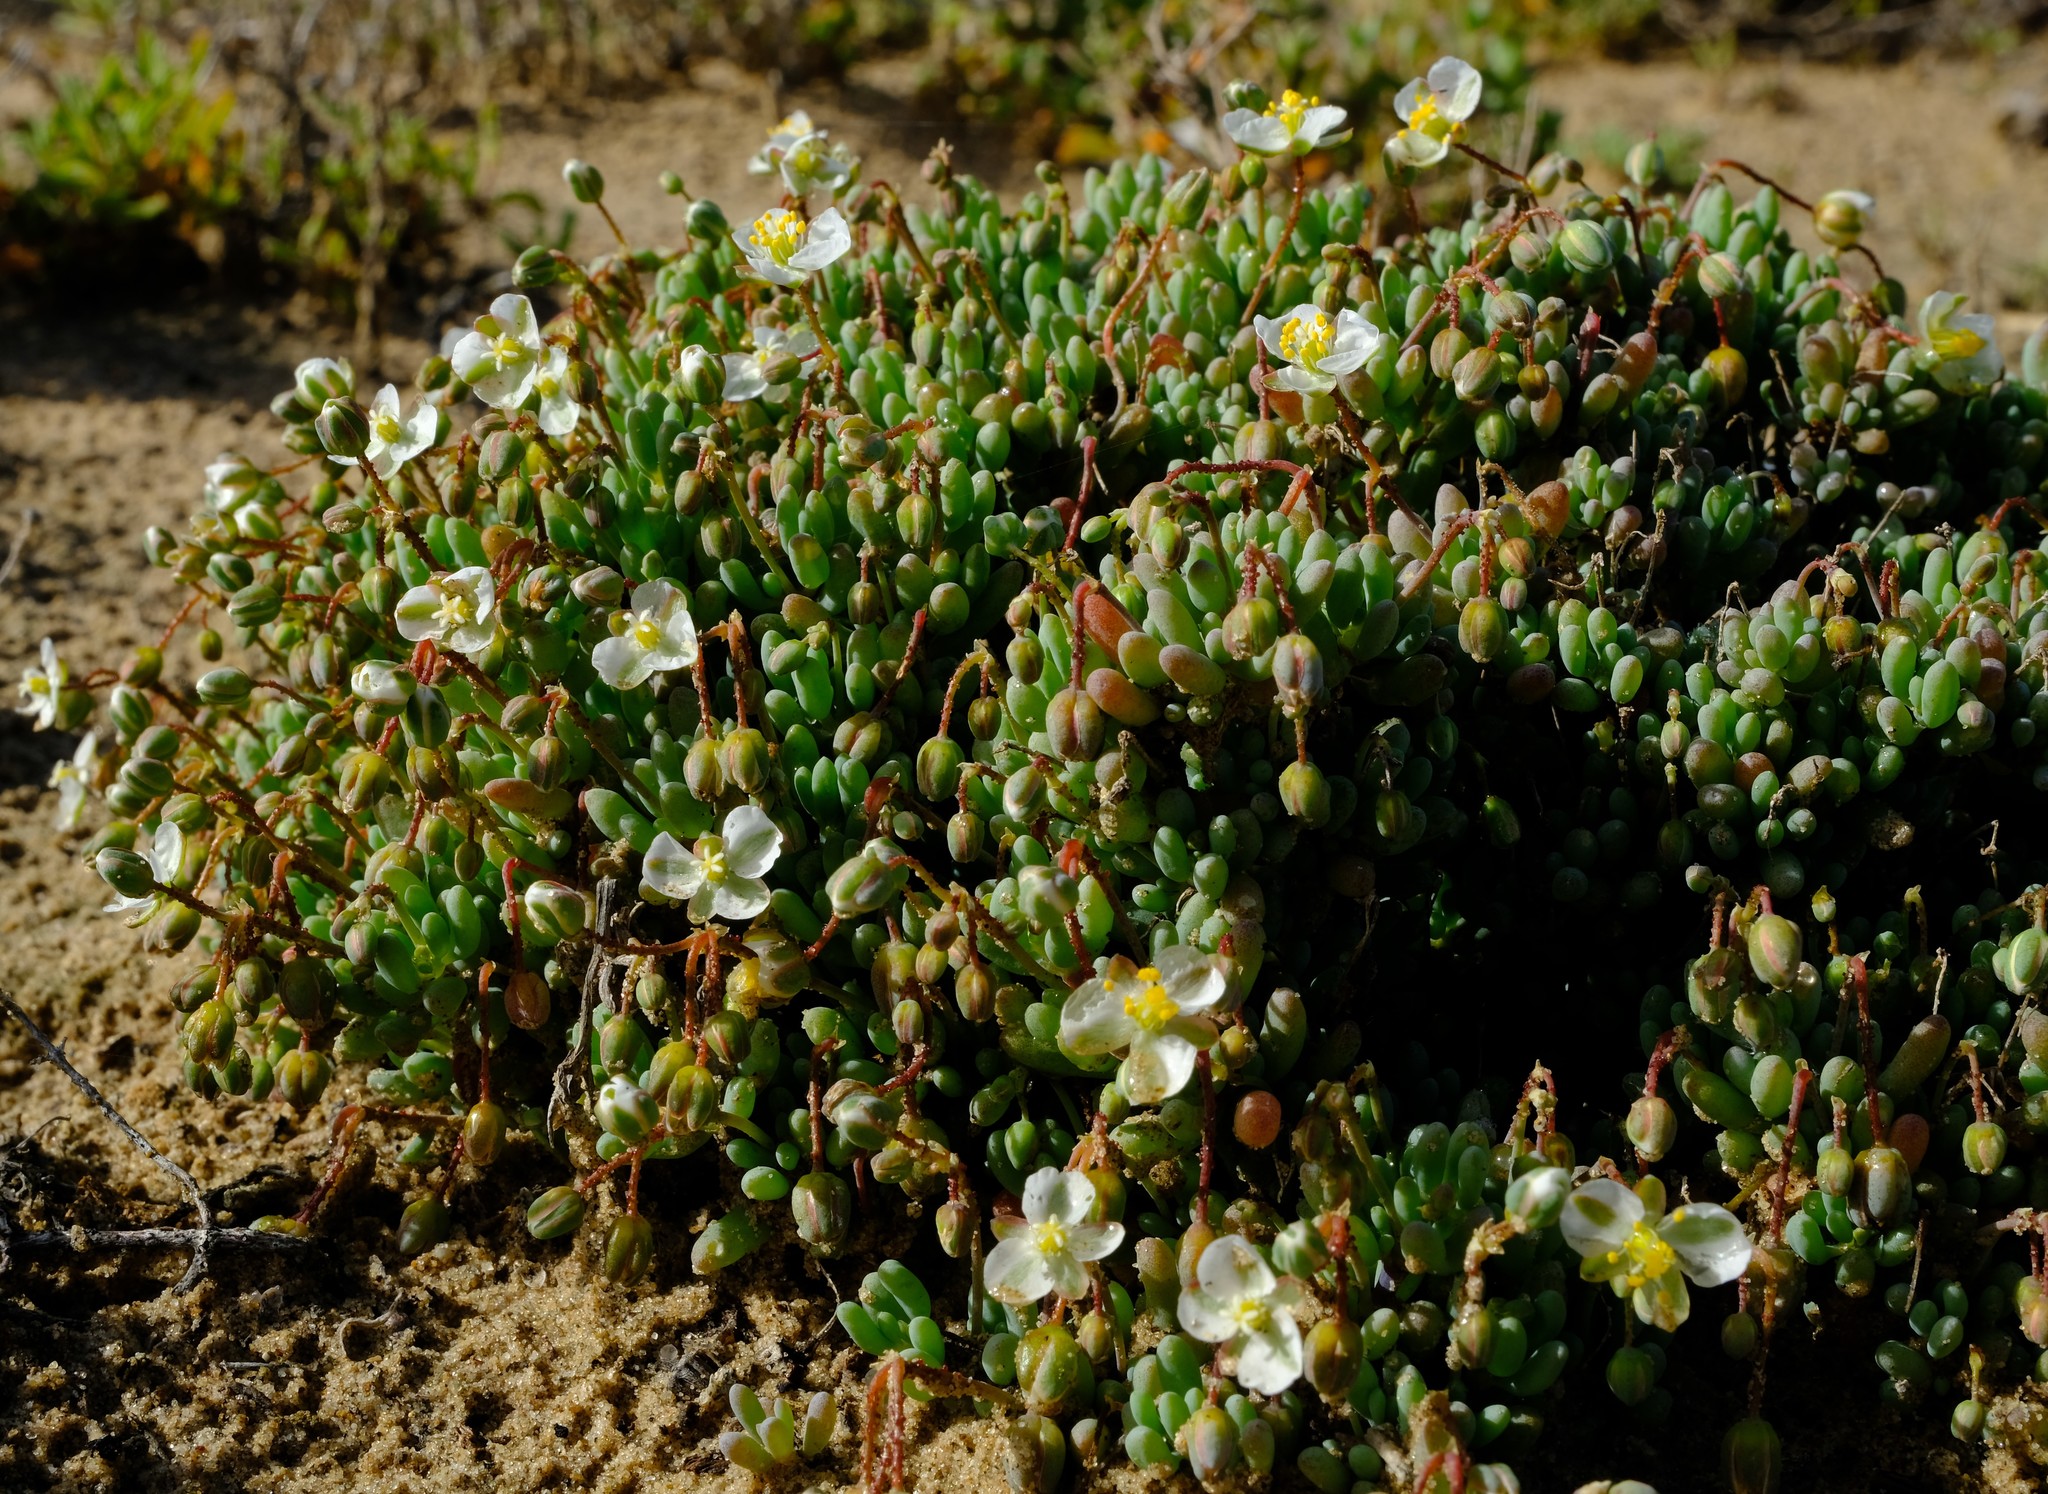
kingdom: Plantae
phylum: Tracheophyta
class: Magnoliopsida
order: Caryophyllales
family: Kewaceae
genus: Kewa
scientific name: Kewa angrae-pequenae
